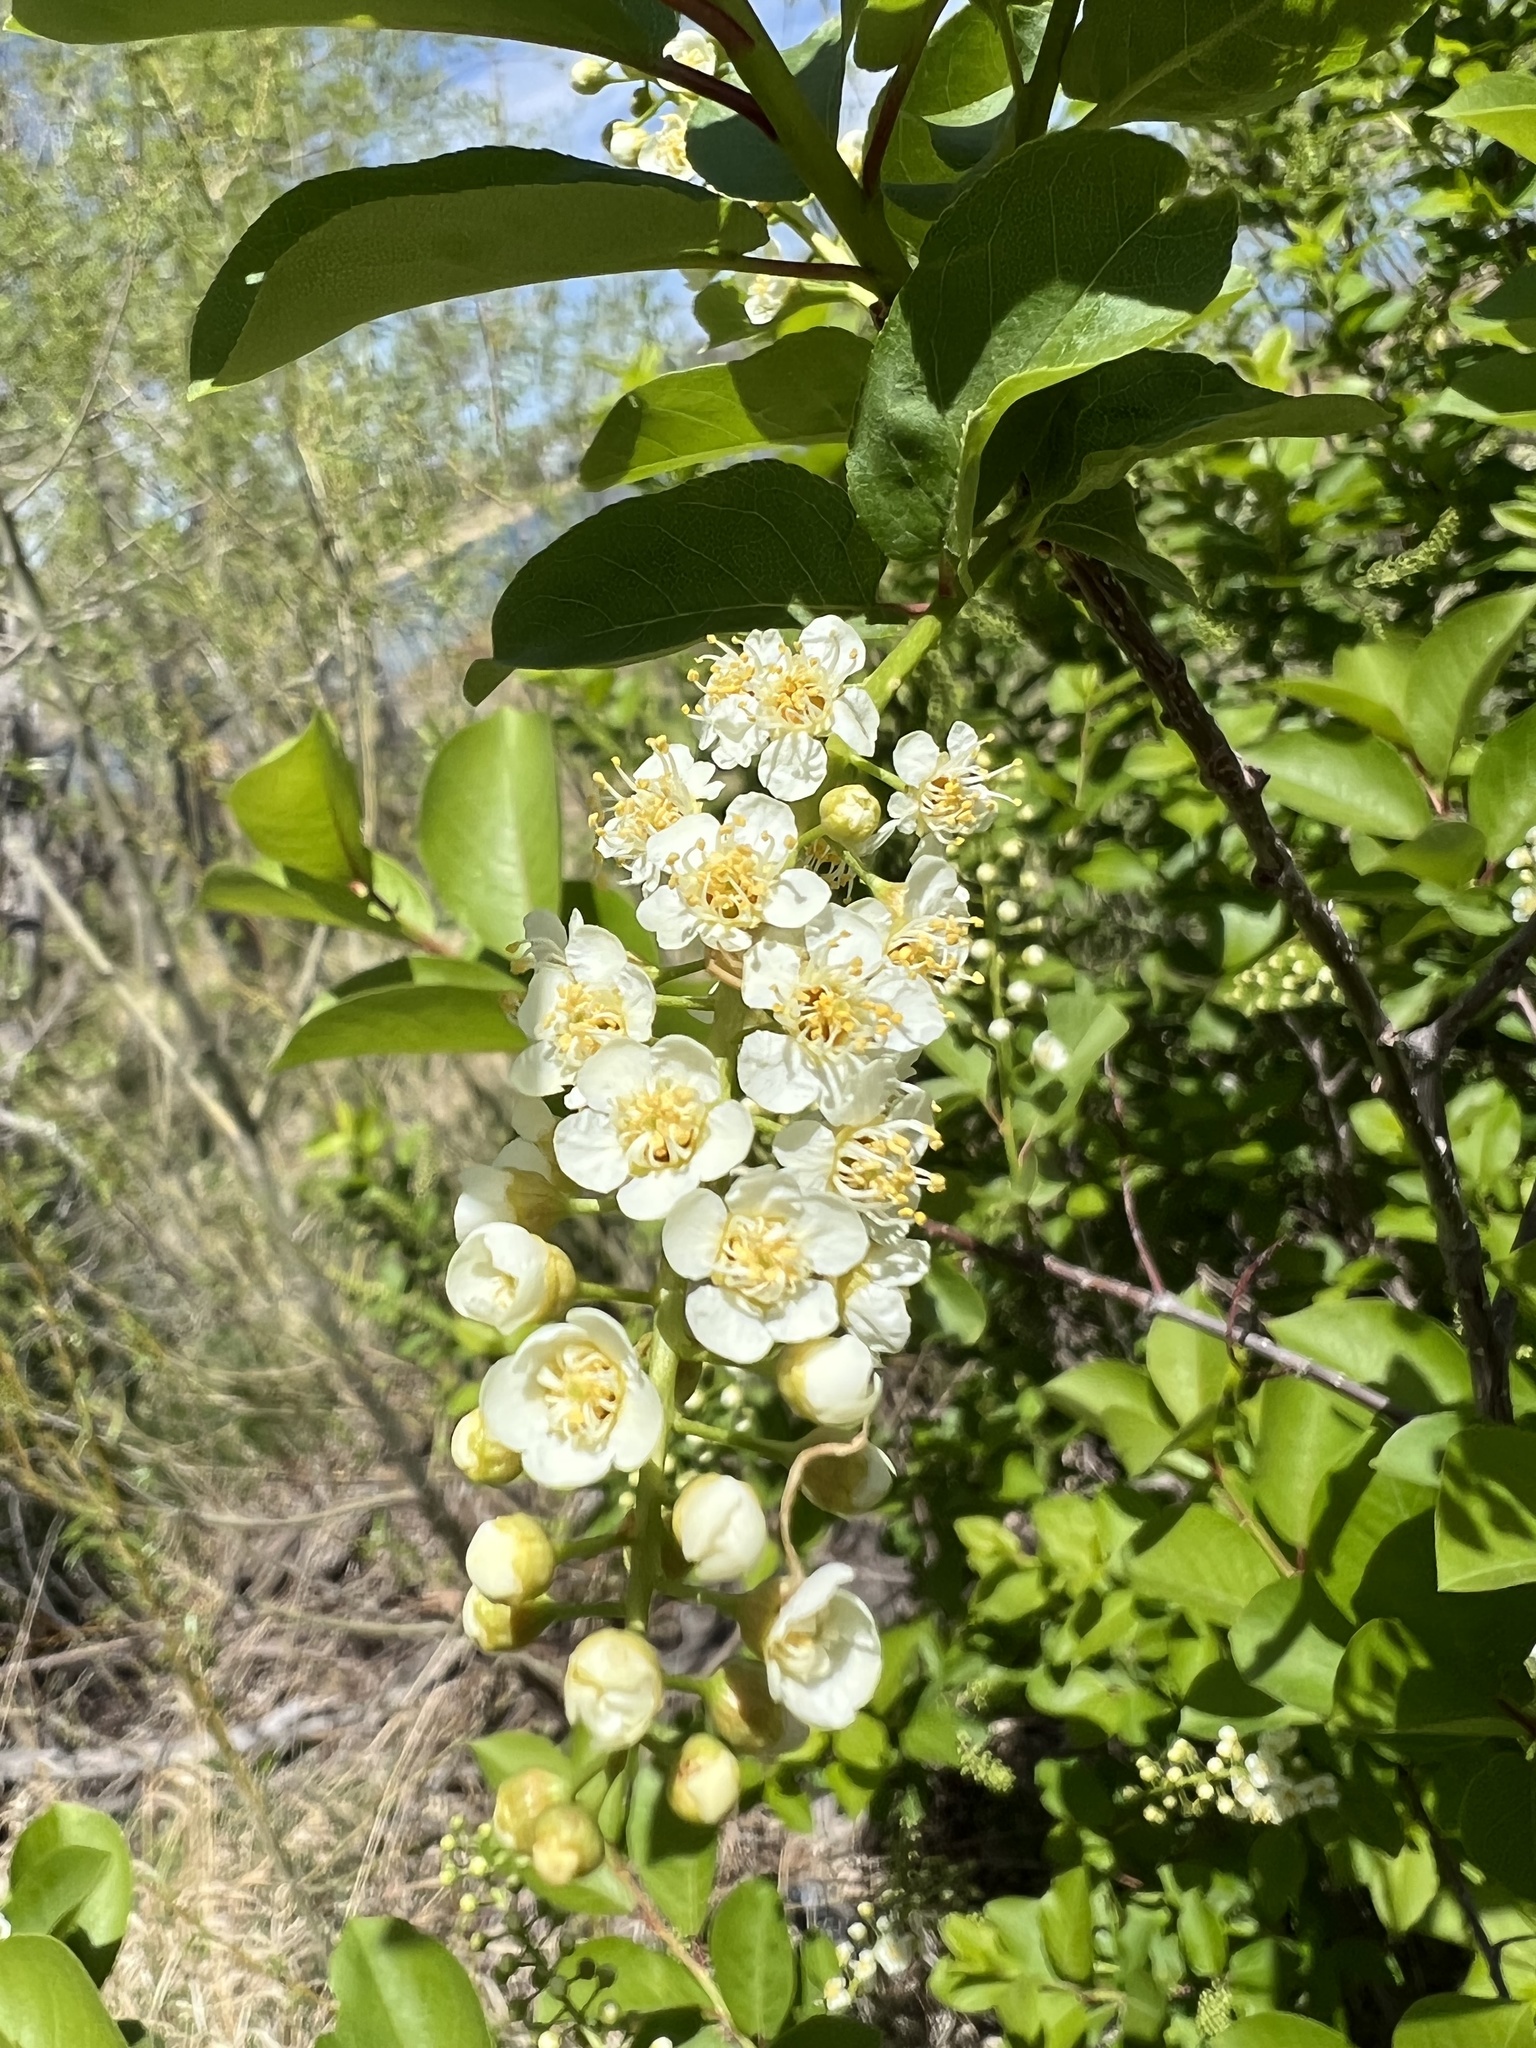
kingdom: Plantae
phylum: Tracheophyta
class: Magnoliopsida
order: Rosales
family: Rosaceae
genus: Prunus
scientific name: Prunus virginiana
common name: Chokecherry
